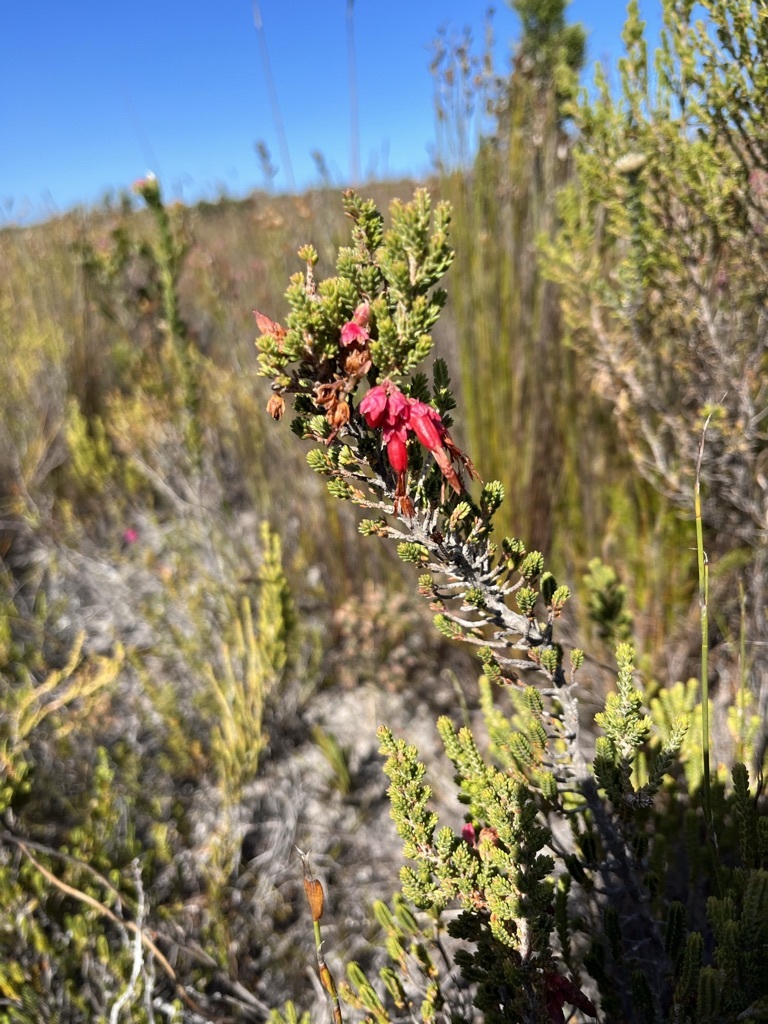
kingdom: Plantae
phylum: Tracheophyta
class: Magnoliopsida
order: Ericales
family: Ericaceae
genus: Erica
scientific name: Erica monadelphia
